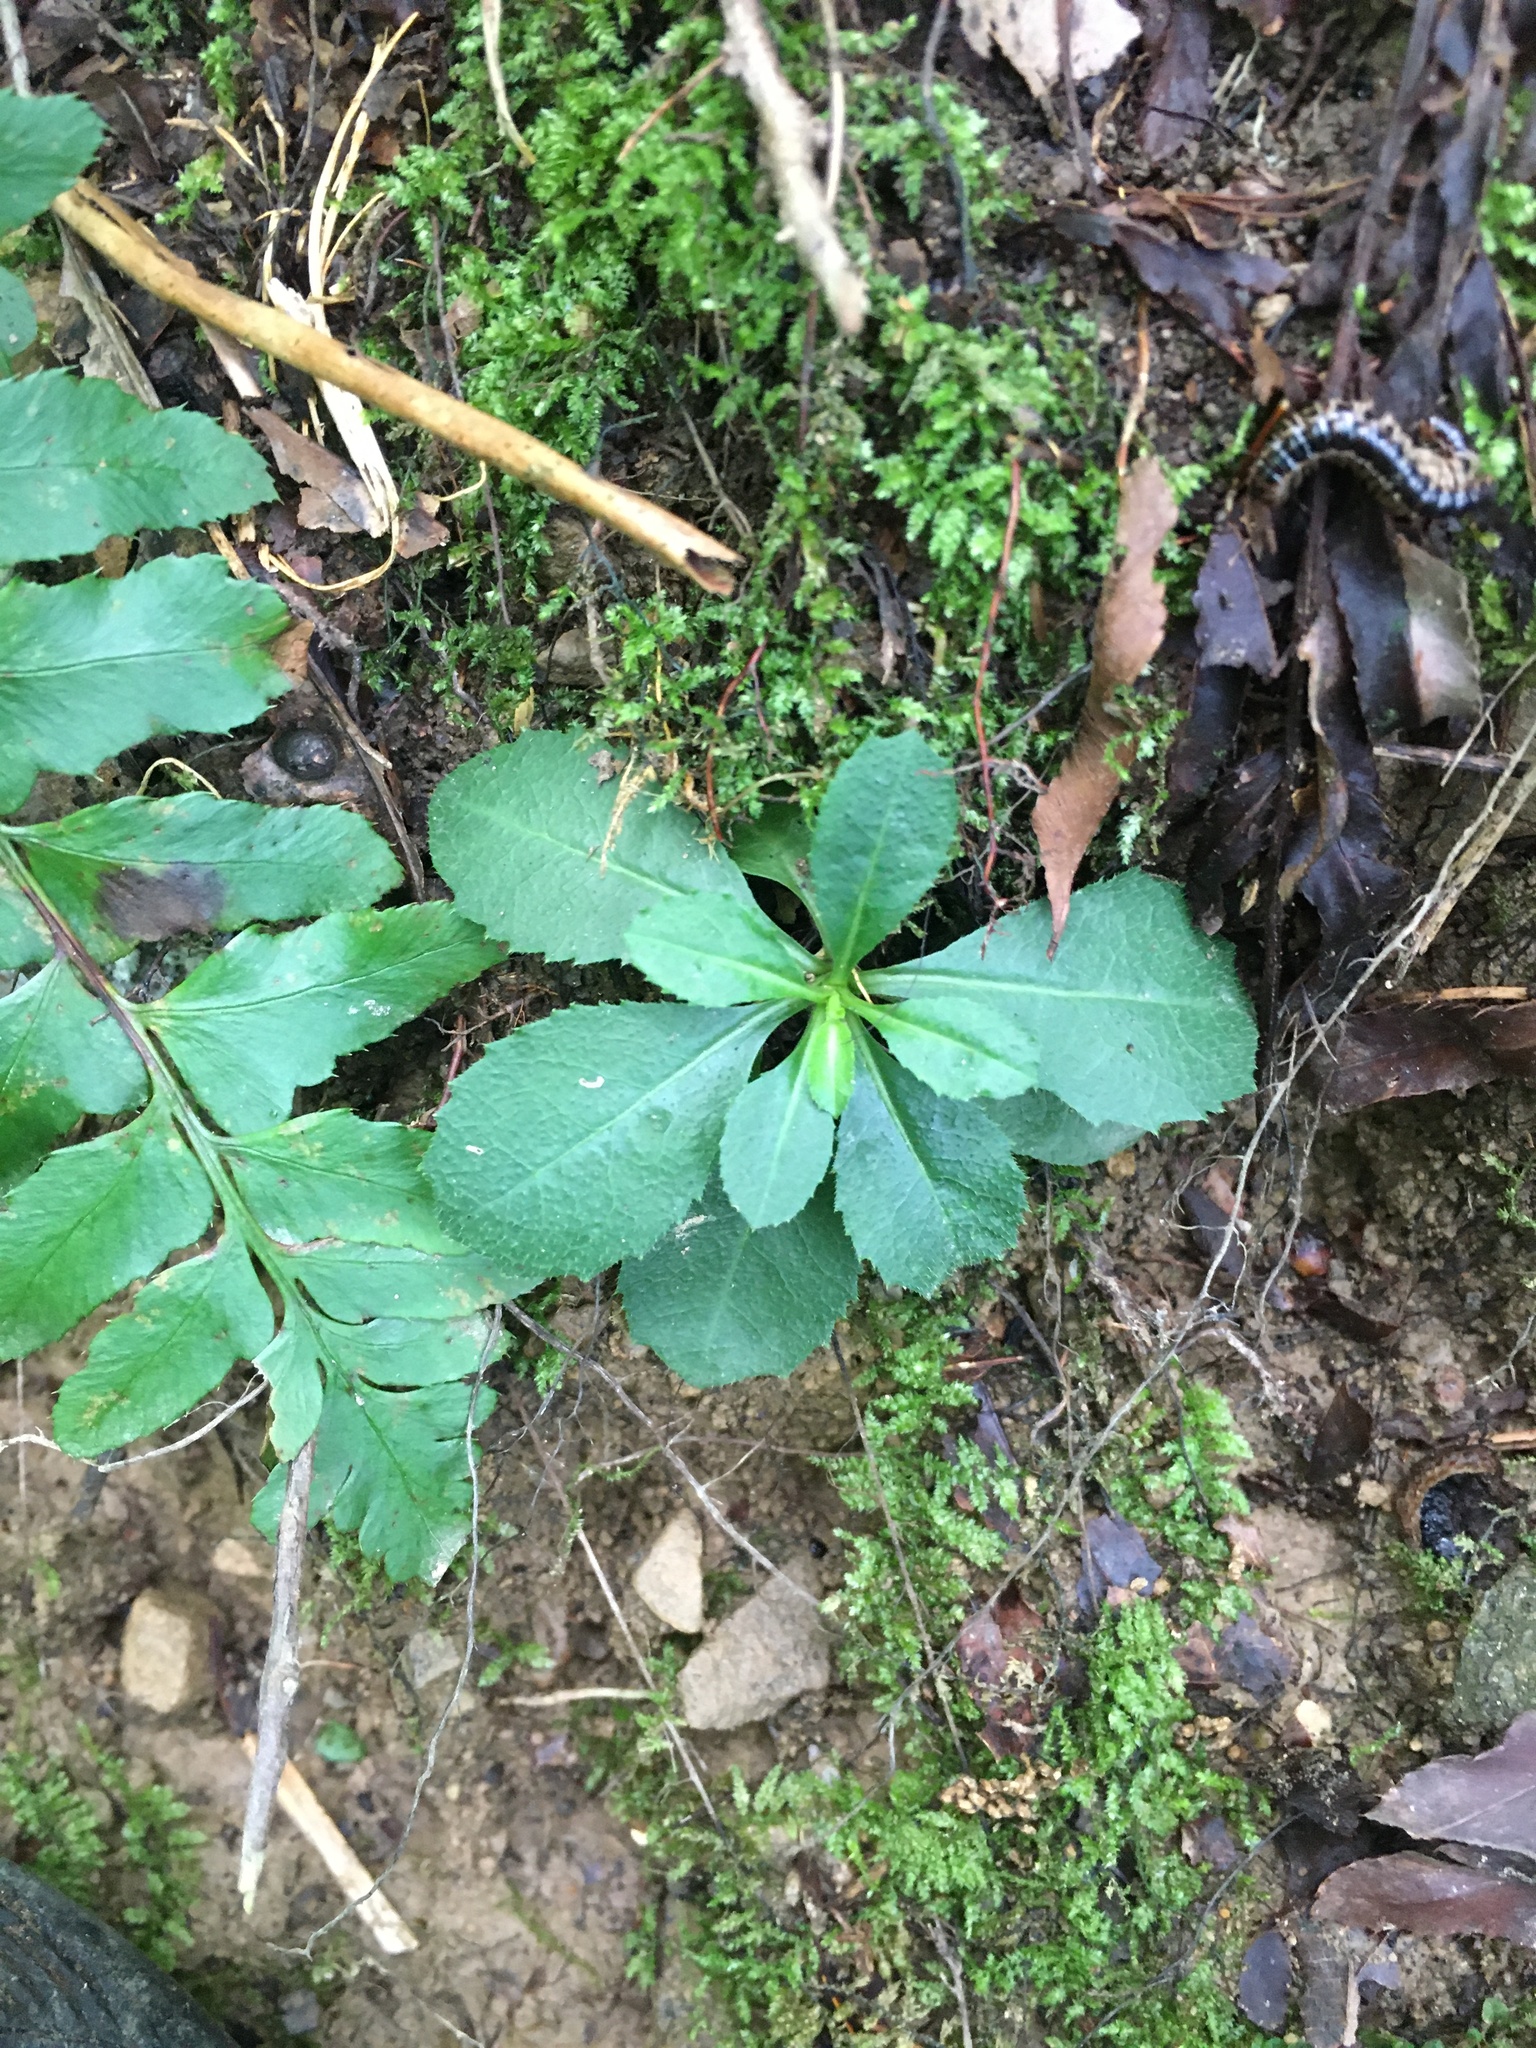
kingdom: Plantae
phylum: Tracheophyta
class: Magnoliopsida
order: Brassicales
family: Brassicaceae
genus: Borodinia
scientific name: Borodinia laevigata
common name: Smooth rockcress
